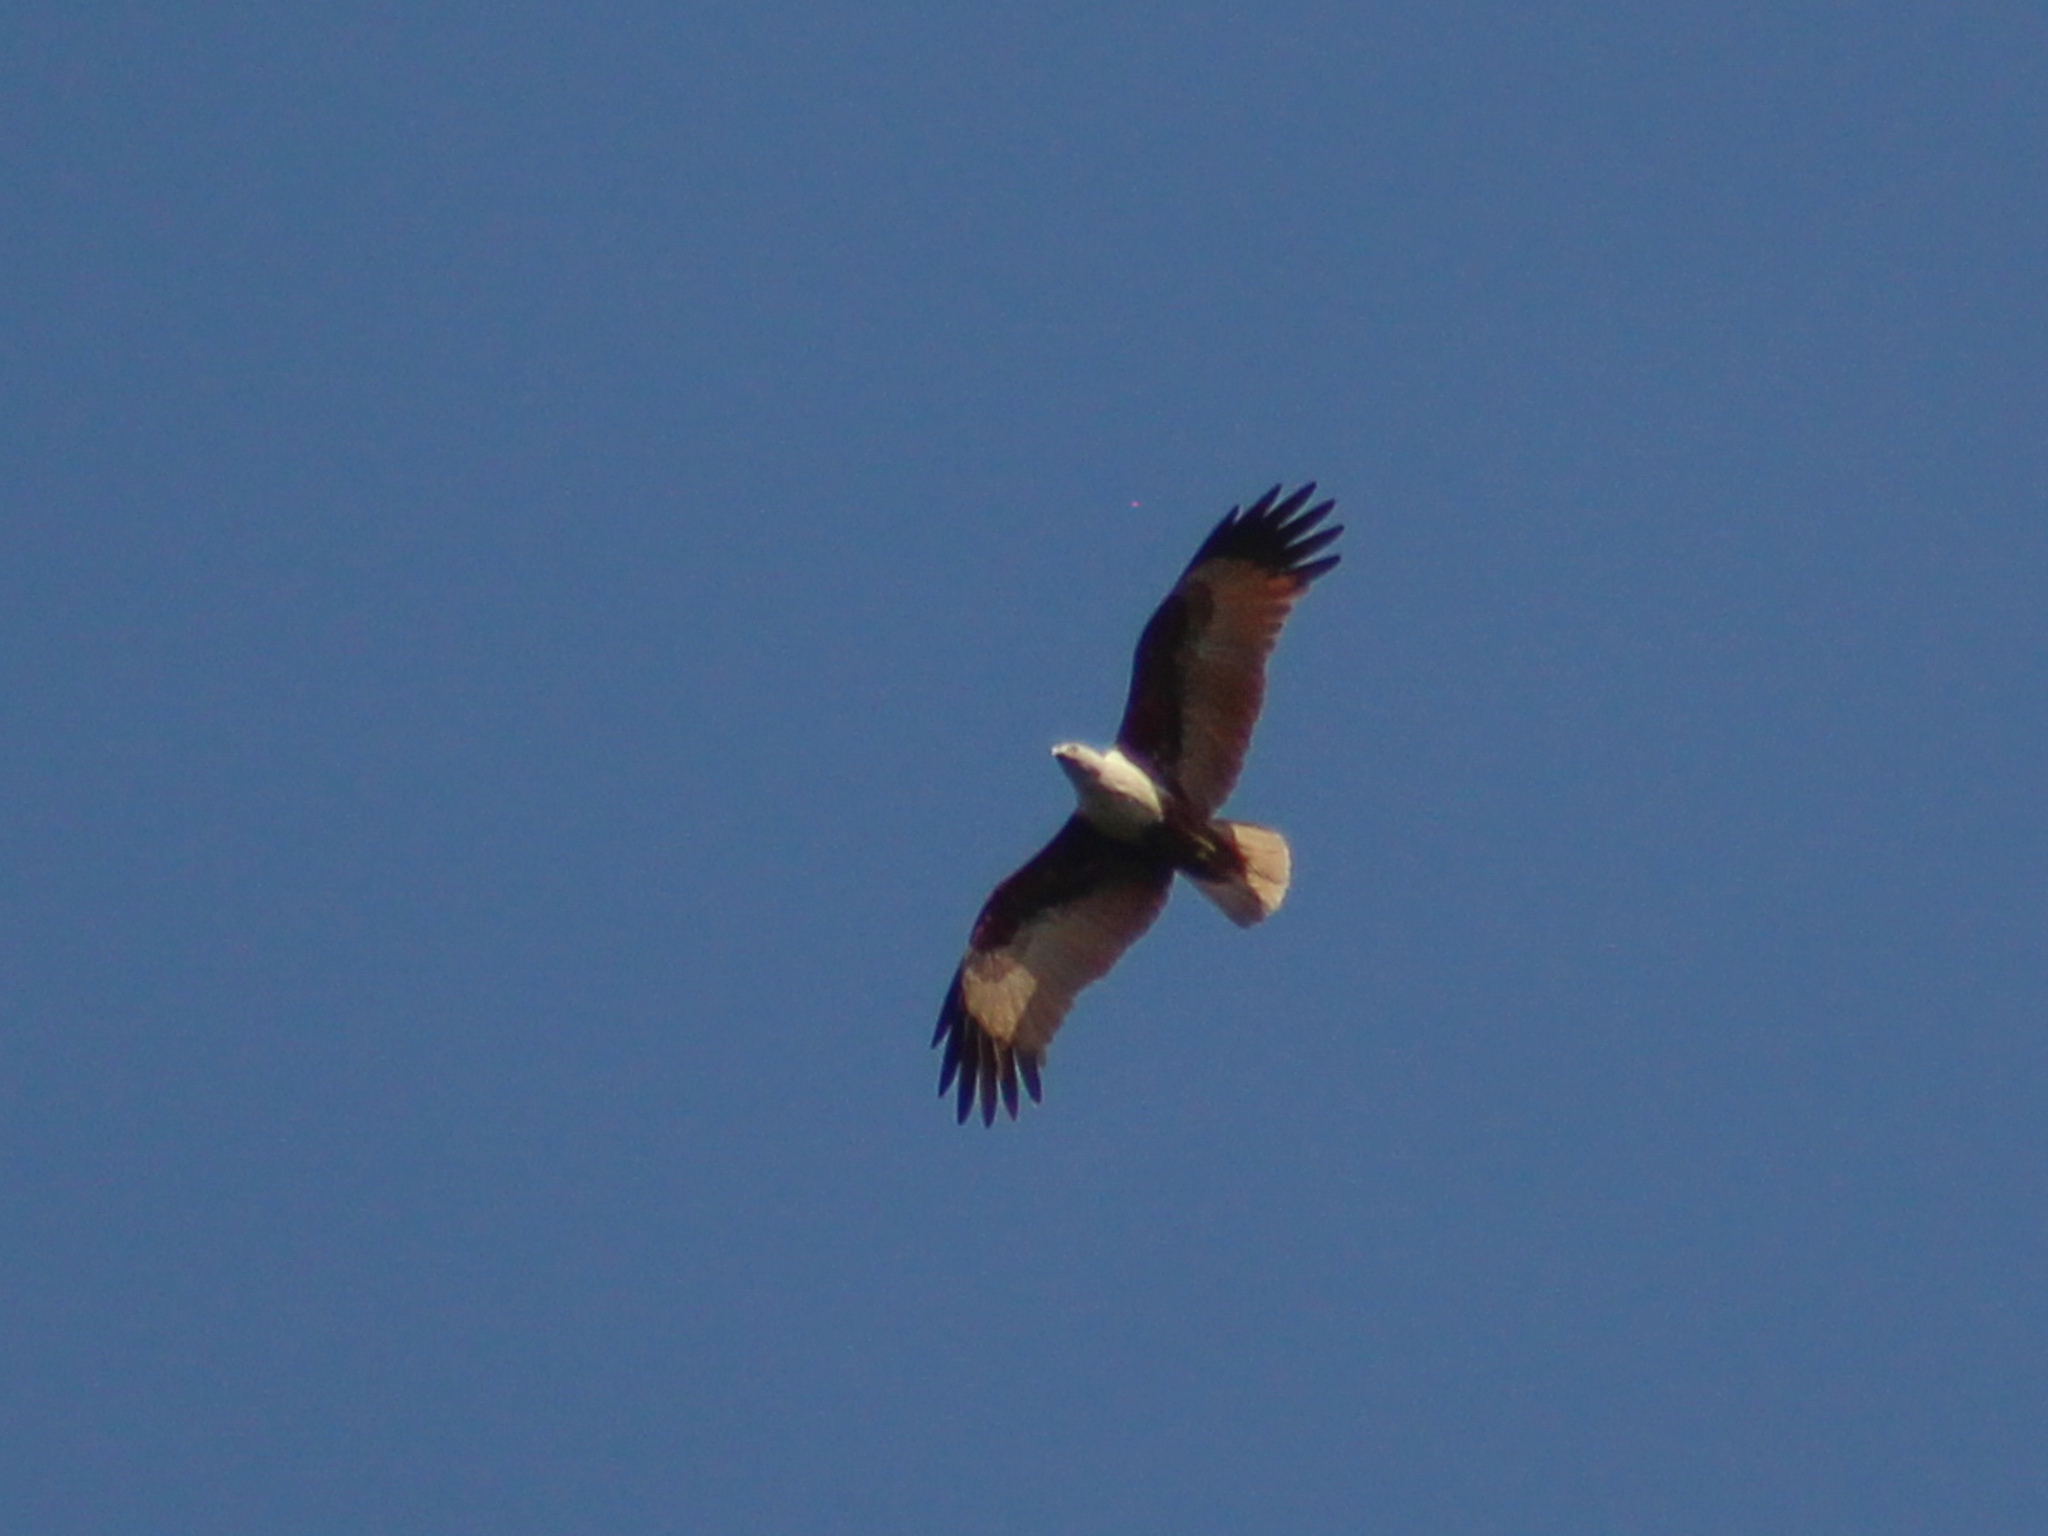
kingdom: Animalia
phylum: Chordata
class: Aves
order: Accipitriformes
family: Accipitridae
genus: Haliastur
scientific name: Haliastur indus
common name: Brahminy kite
